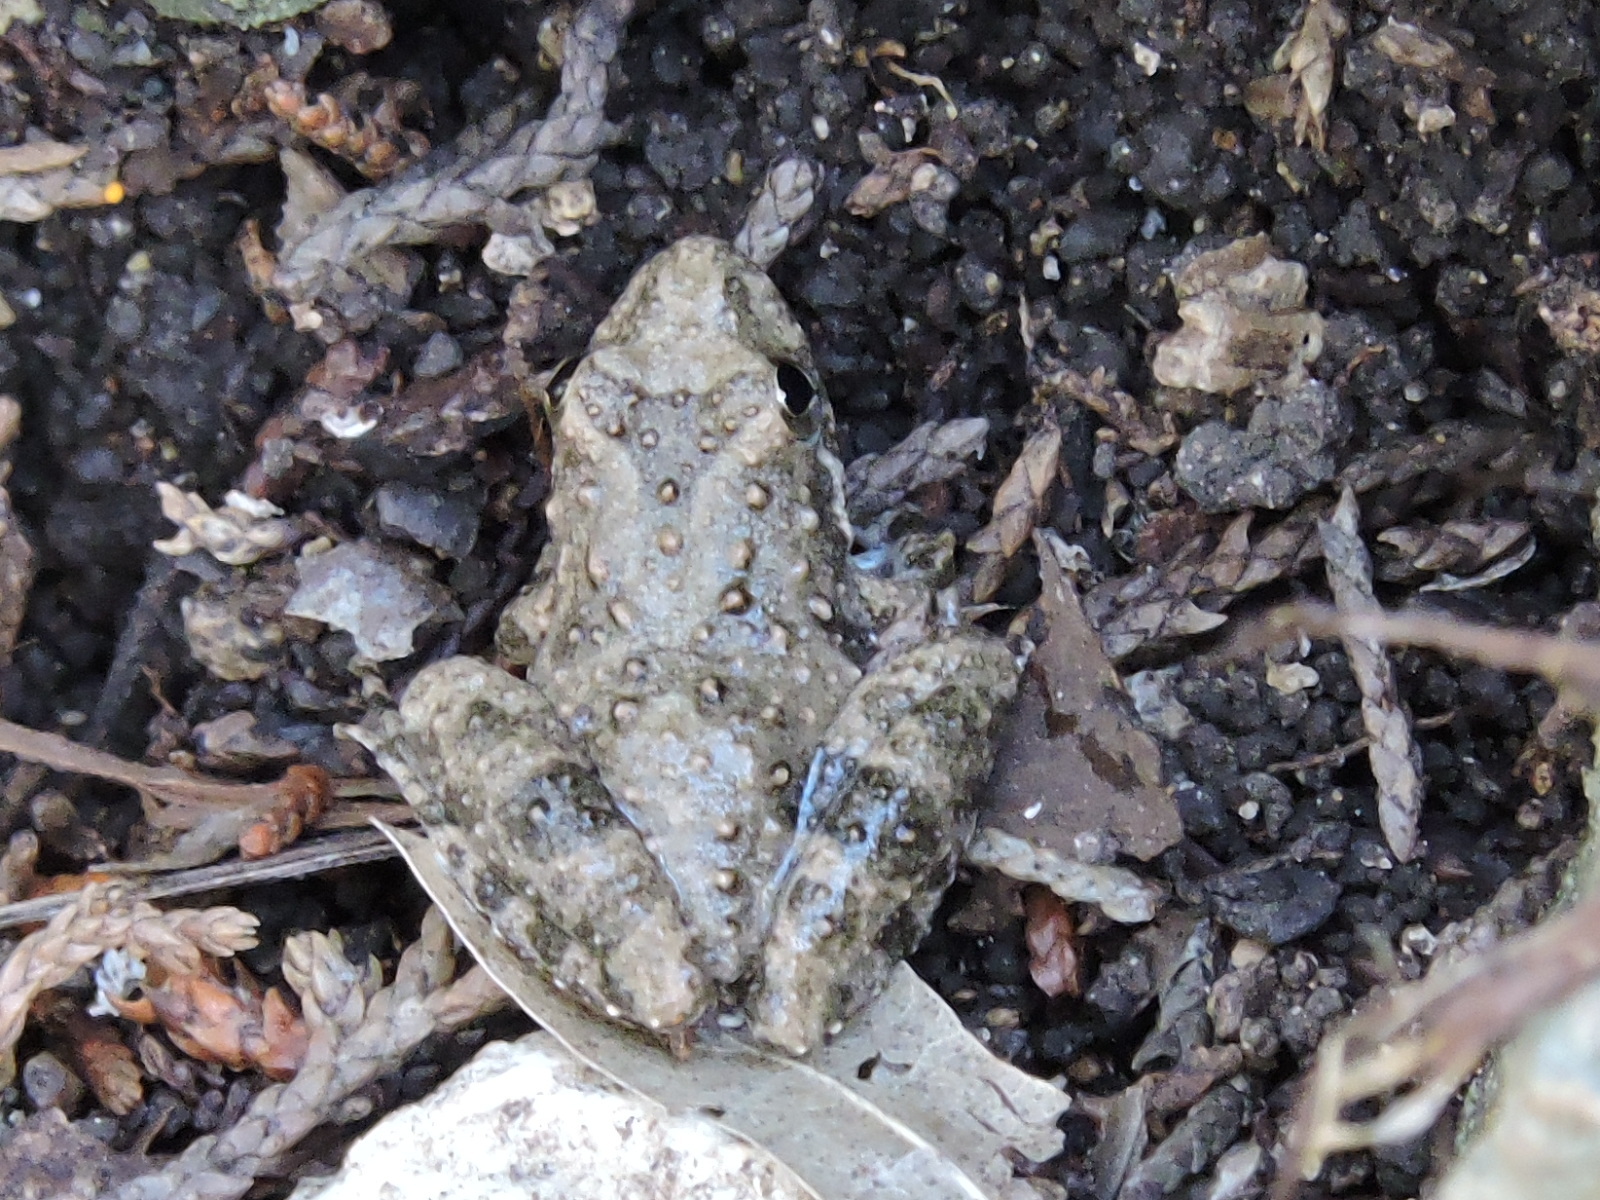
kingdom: Animalia
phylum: Chordata
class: Amphibia
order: Anura
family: Hylidae
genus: Acris
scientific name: Acris blanchardi
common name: Blanchard's cricket frog
